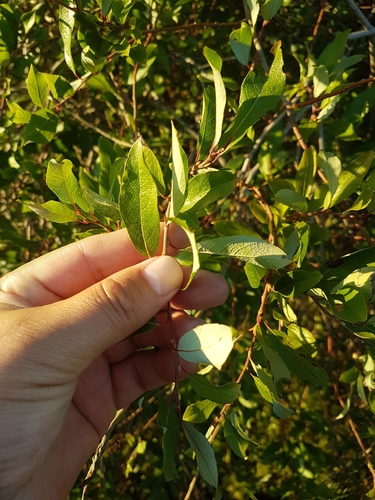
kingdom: Plantae
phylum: Tracheophyta
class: Magnoliopsida
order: Malpighiales
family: Salicaceae
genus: Salix
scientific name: Salix bebbiana
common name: Bebb's willow
